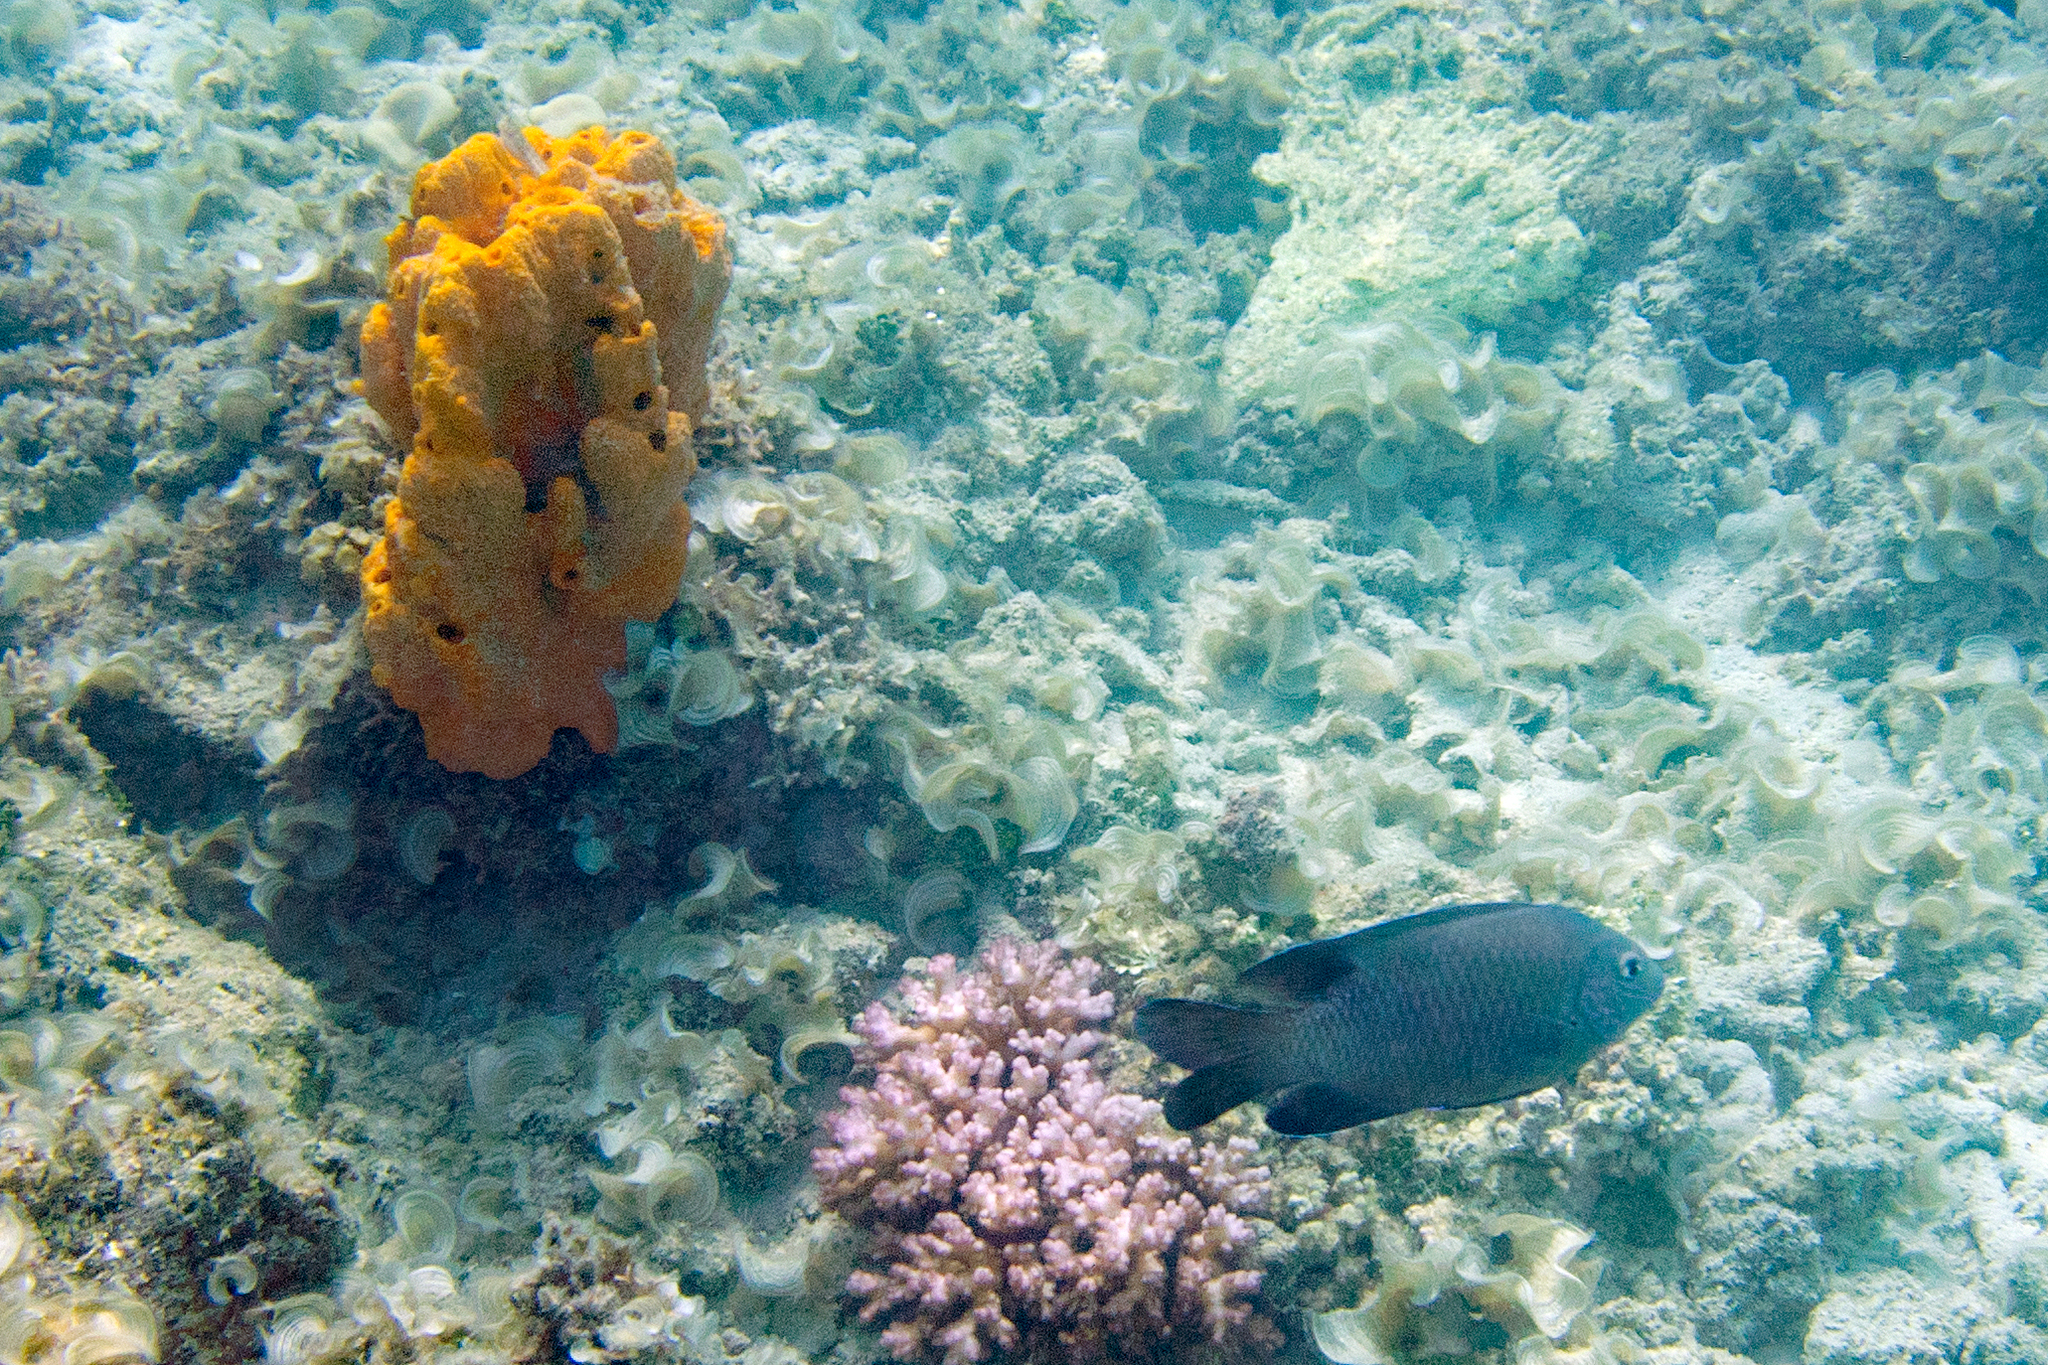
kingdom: Animalia
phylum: Chordata
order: Perciformes
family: Pomacentridae
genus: Dischistodus
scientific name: Dischistodus perspicillatus
